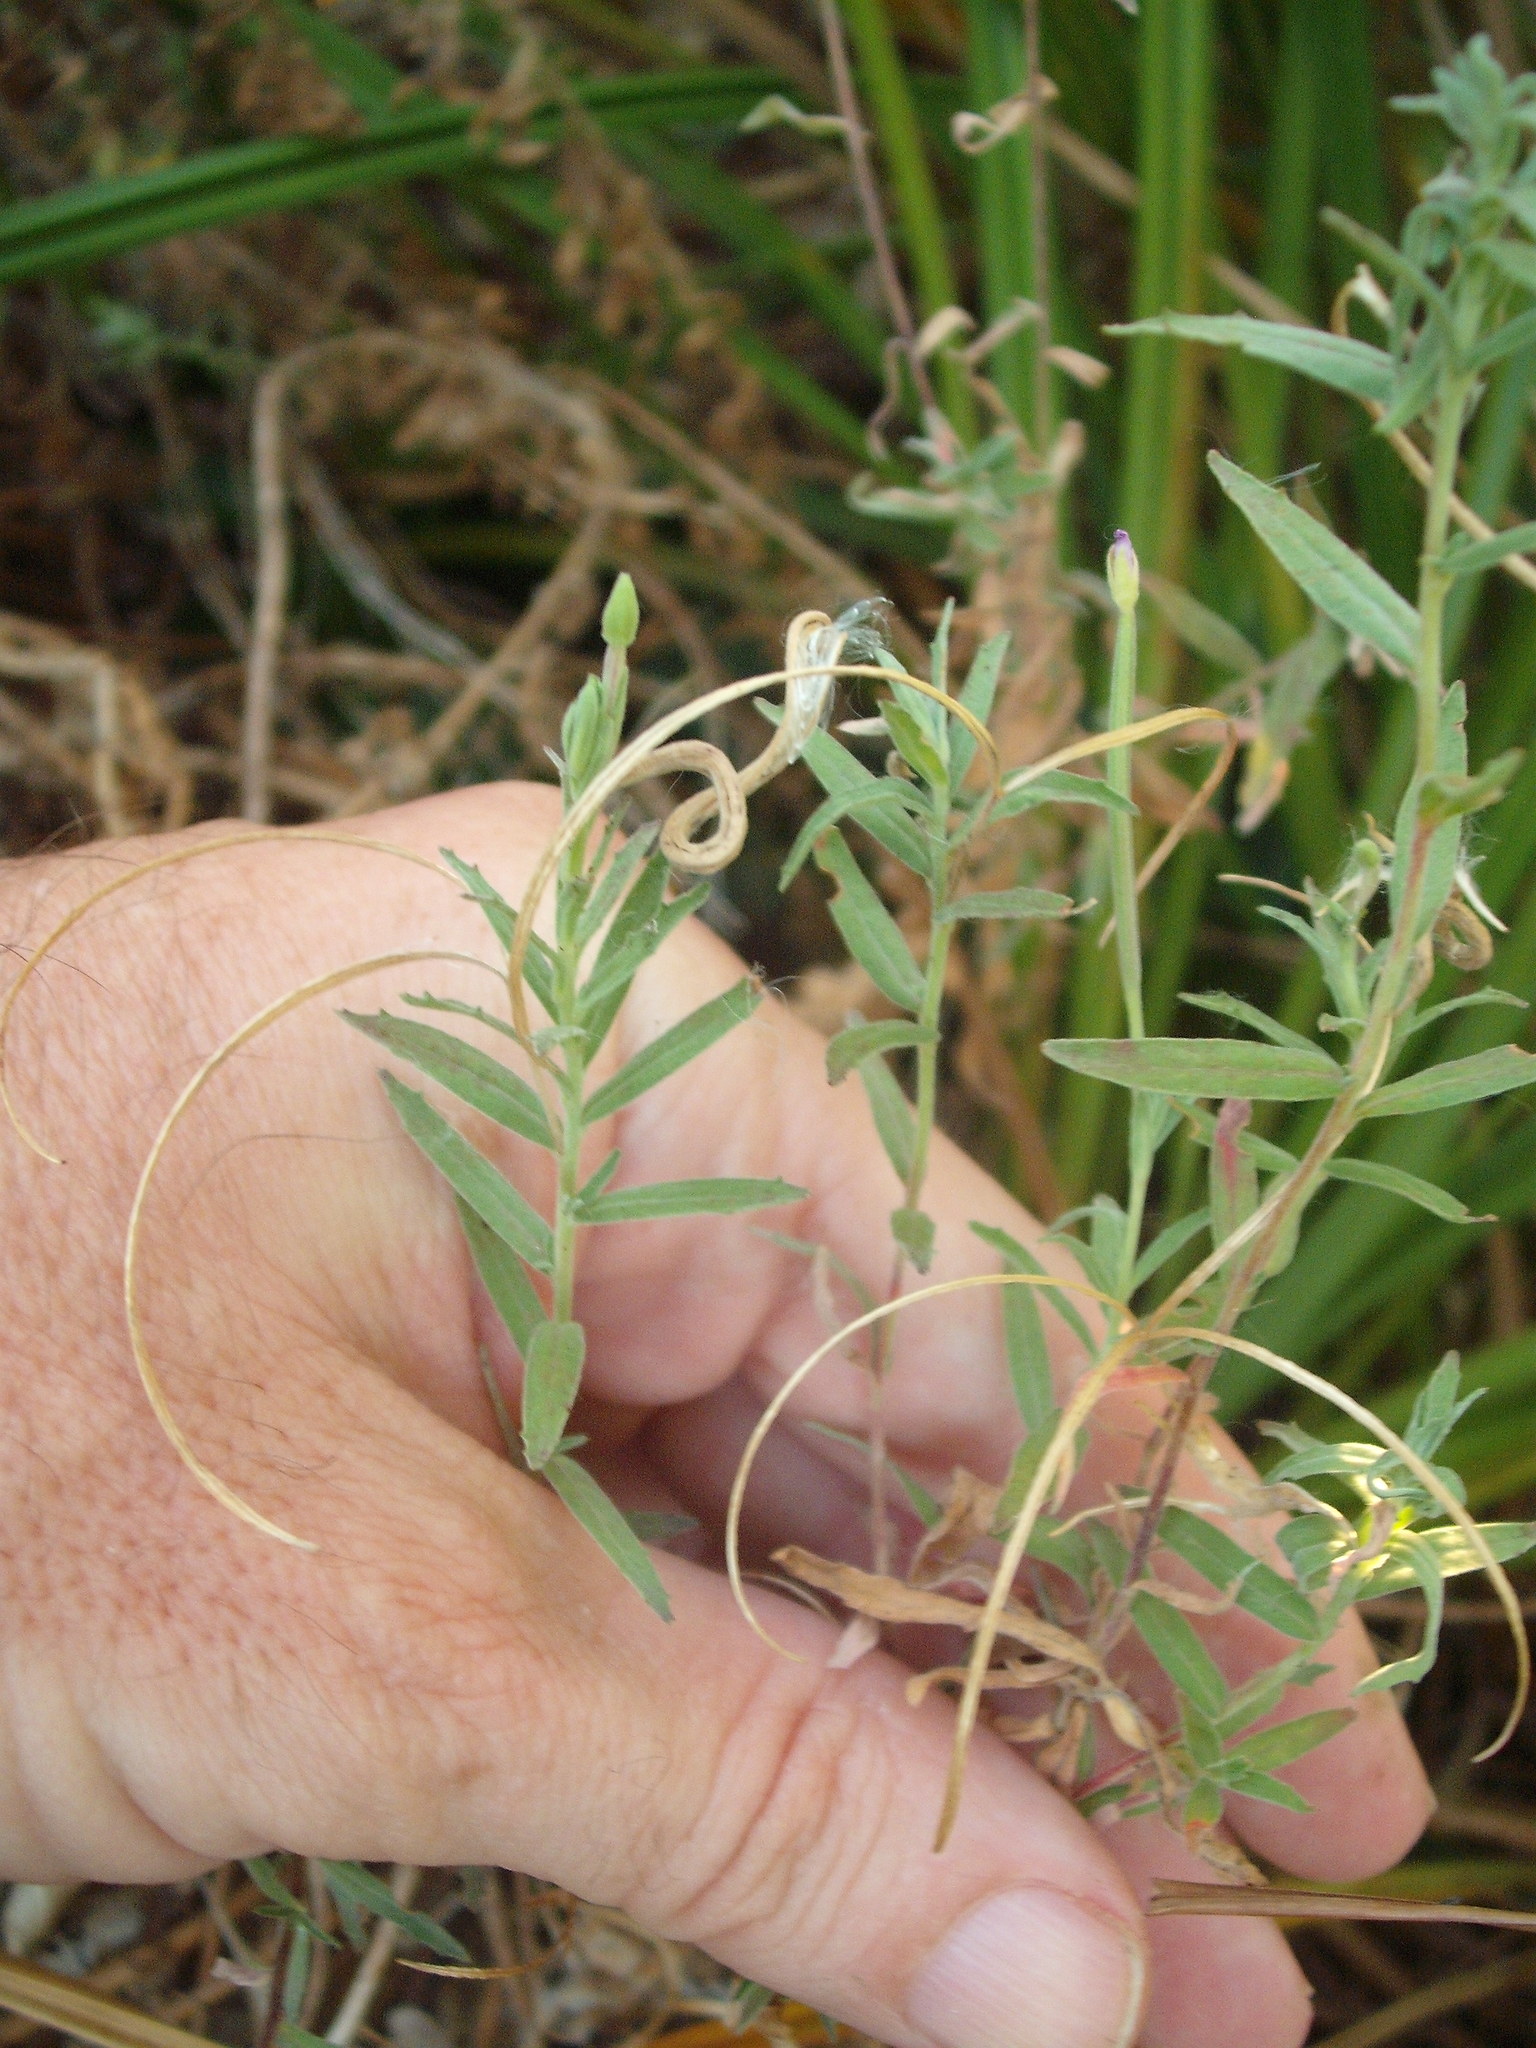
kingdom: Plantae
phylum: Tracheophyta
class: Magnoliopsida
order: Myrtales
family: Onagraceae
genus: Epilobium
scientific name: Epilobium hirtigerum
